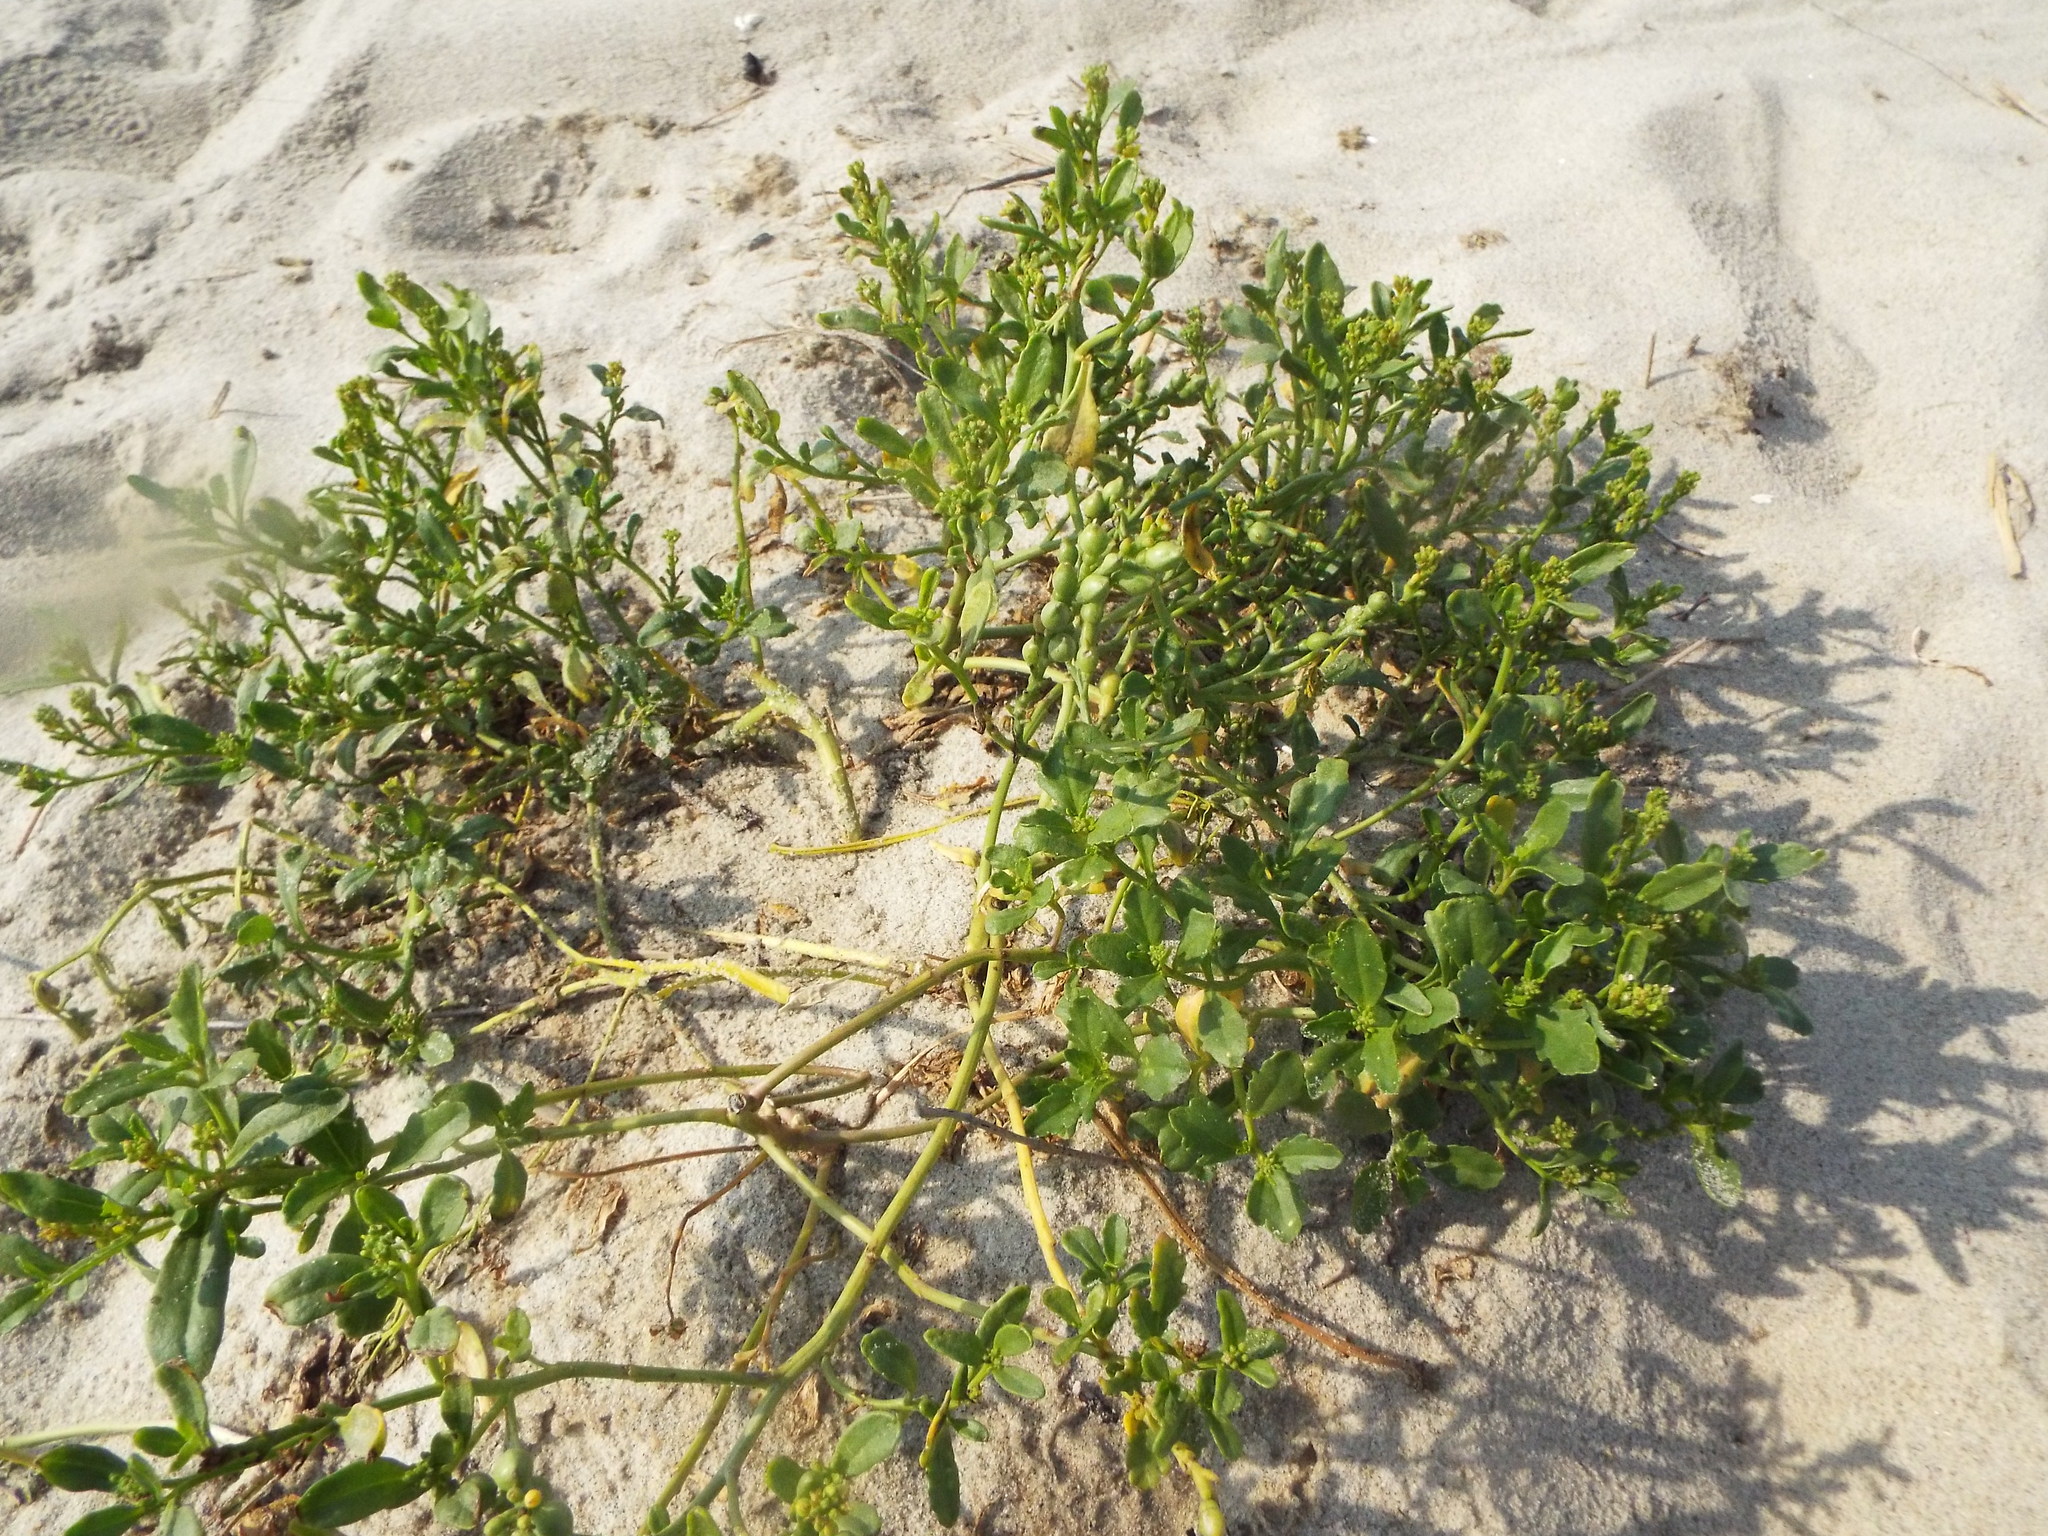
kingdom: Plantae
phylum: Tracheophyta
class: Magnoliopsida
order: Brassicales
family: Brassicaceae
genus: Cakile
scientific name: Cakile edentula
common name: American sea rocket
